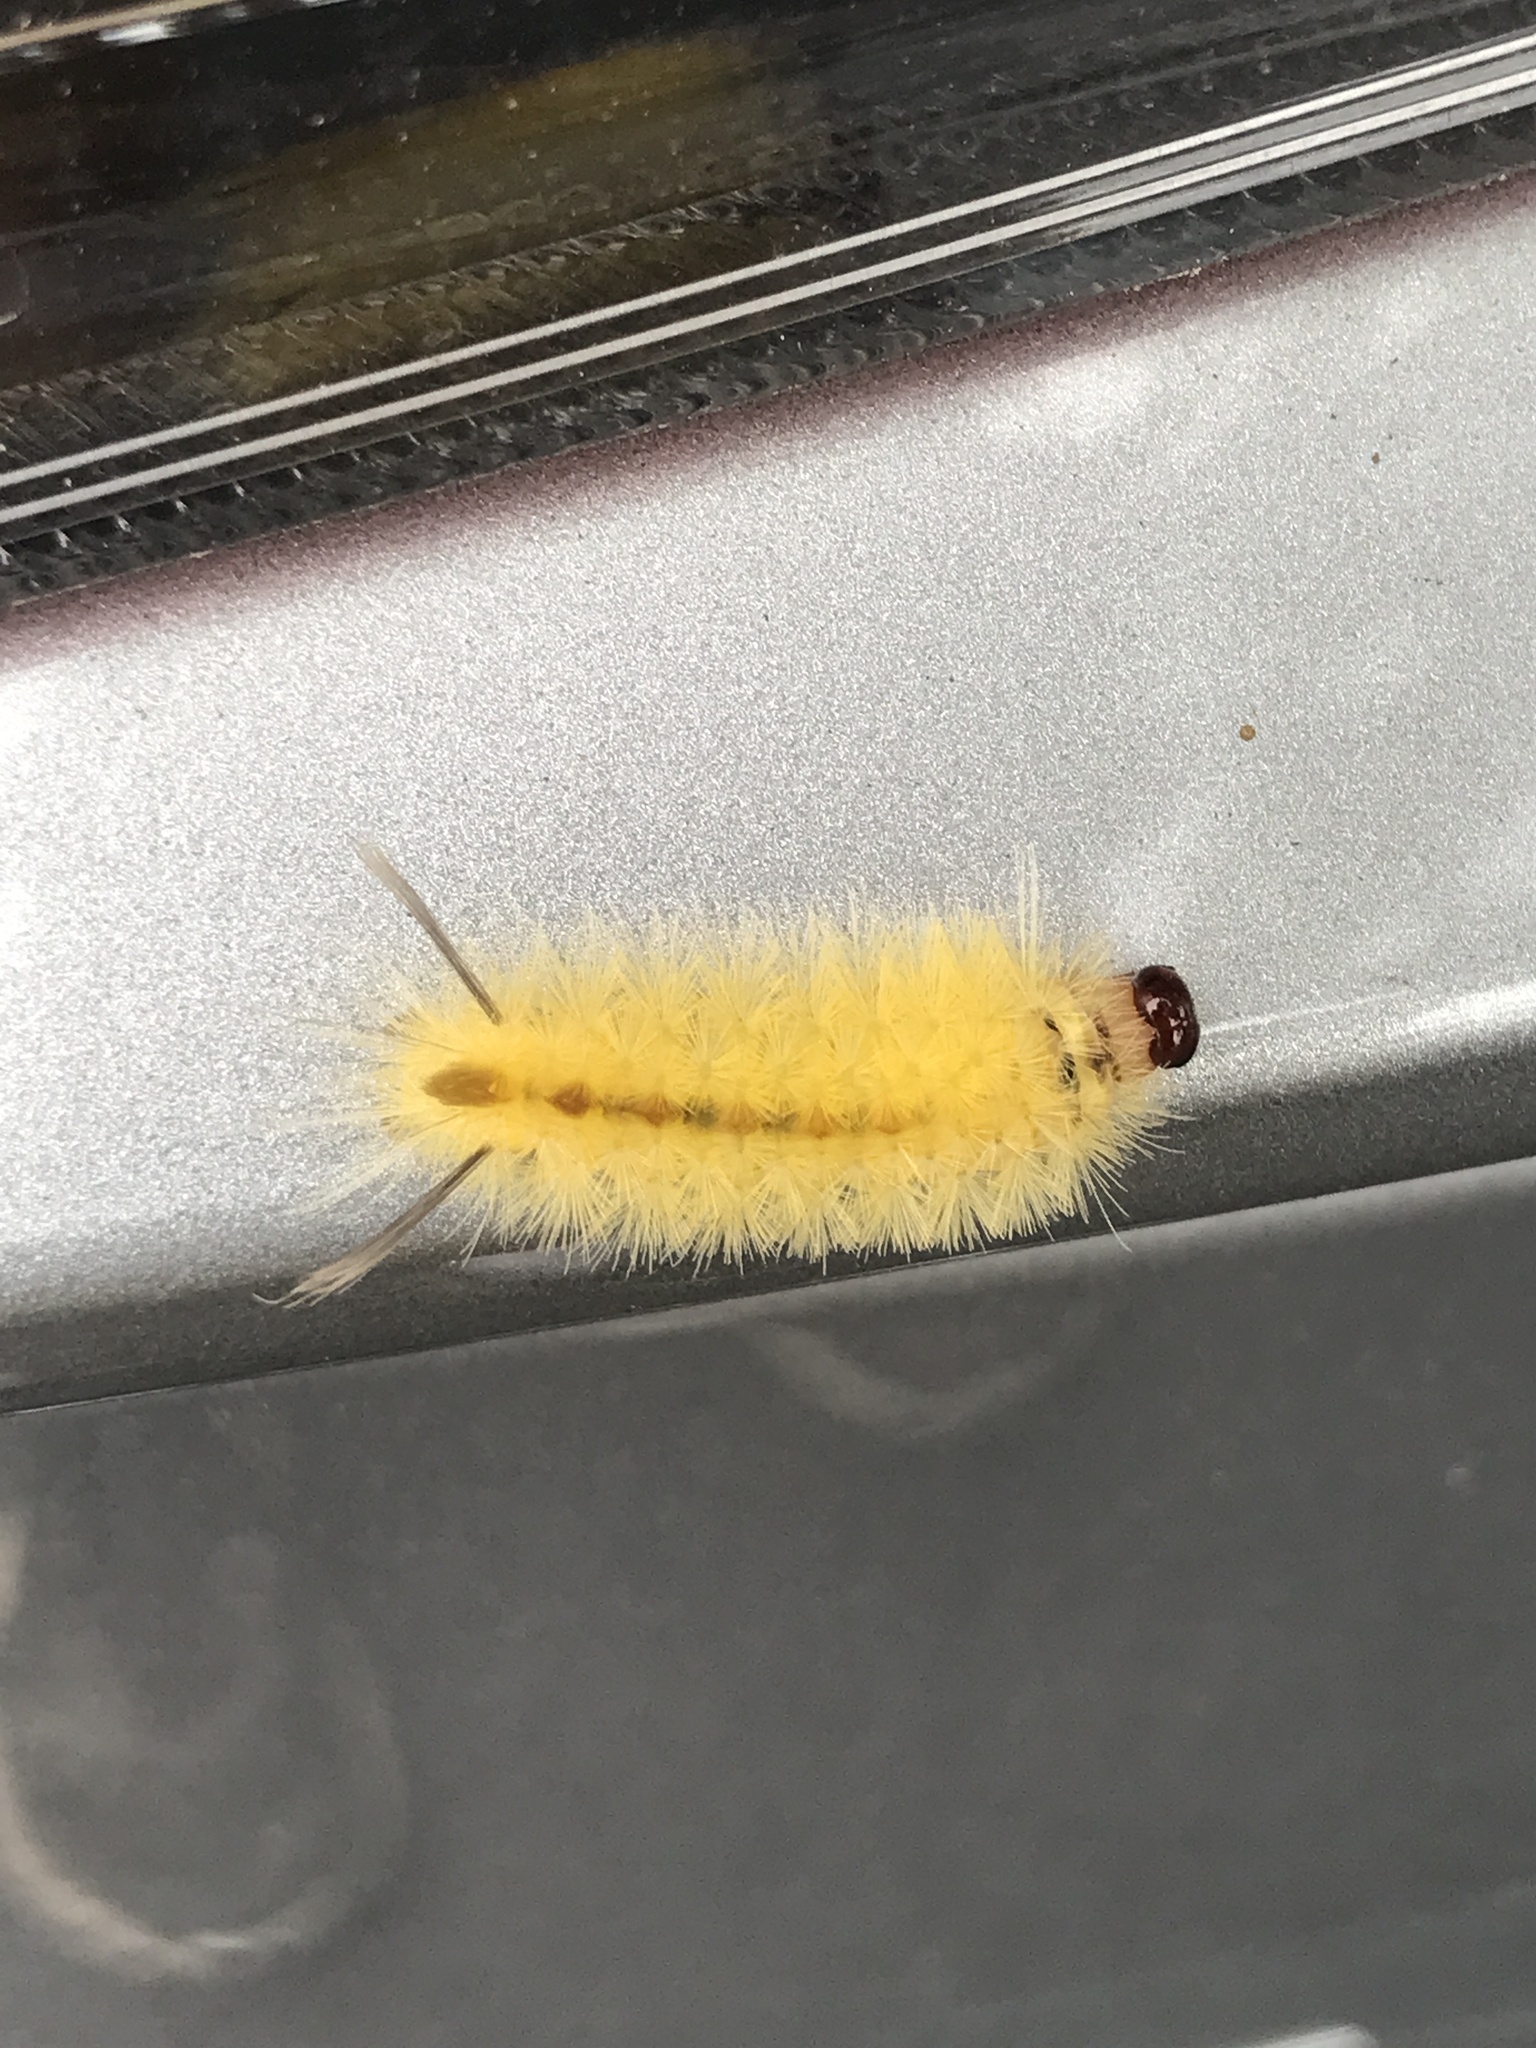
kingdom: Animalia
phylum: Arthropoda
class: Insecta
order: Lepidoptera
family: Erebidae
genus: Halysidota
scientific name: Halysidota tessellaris
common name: Banded tussock moth
